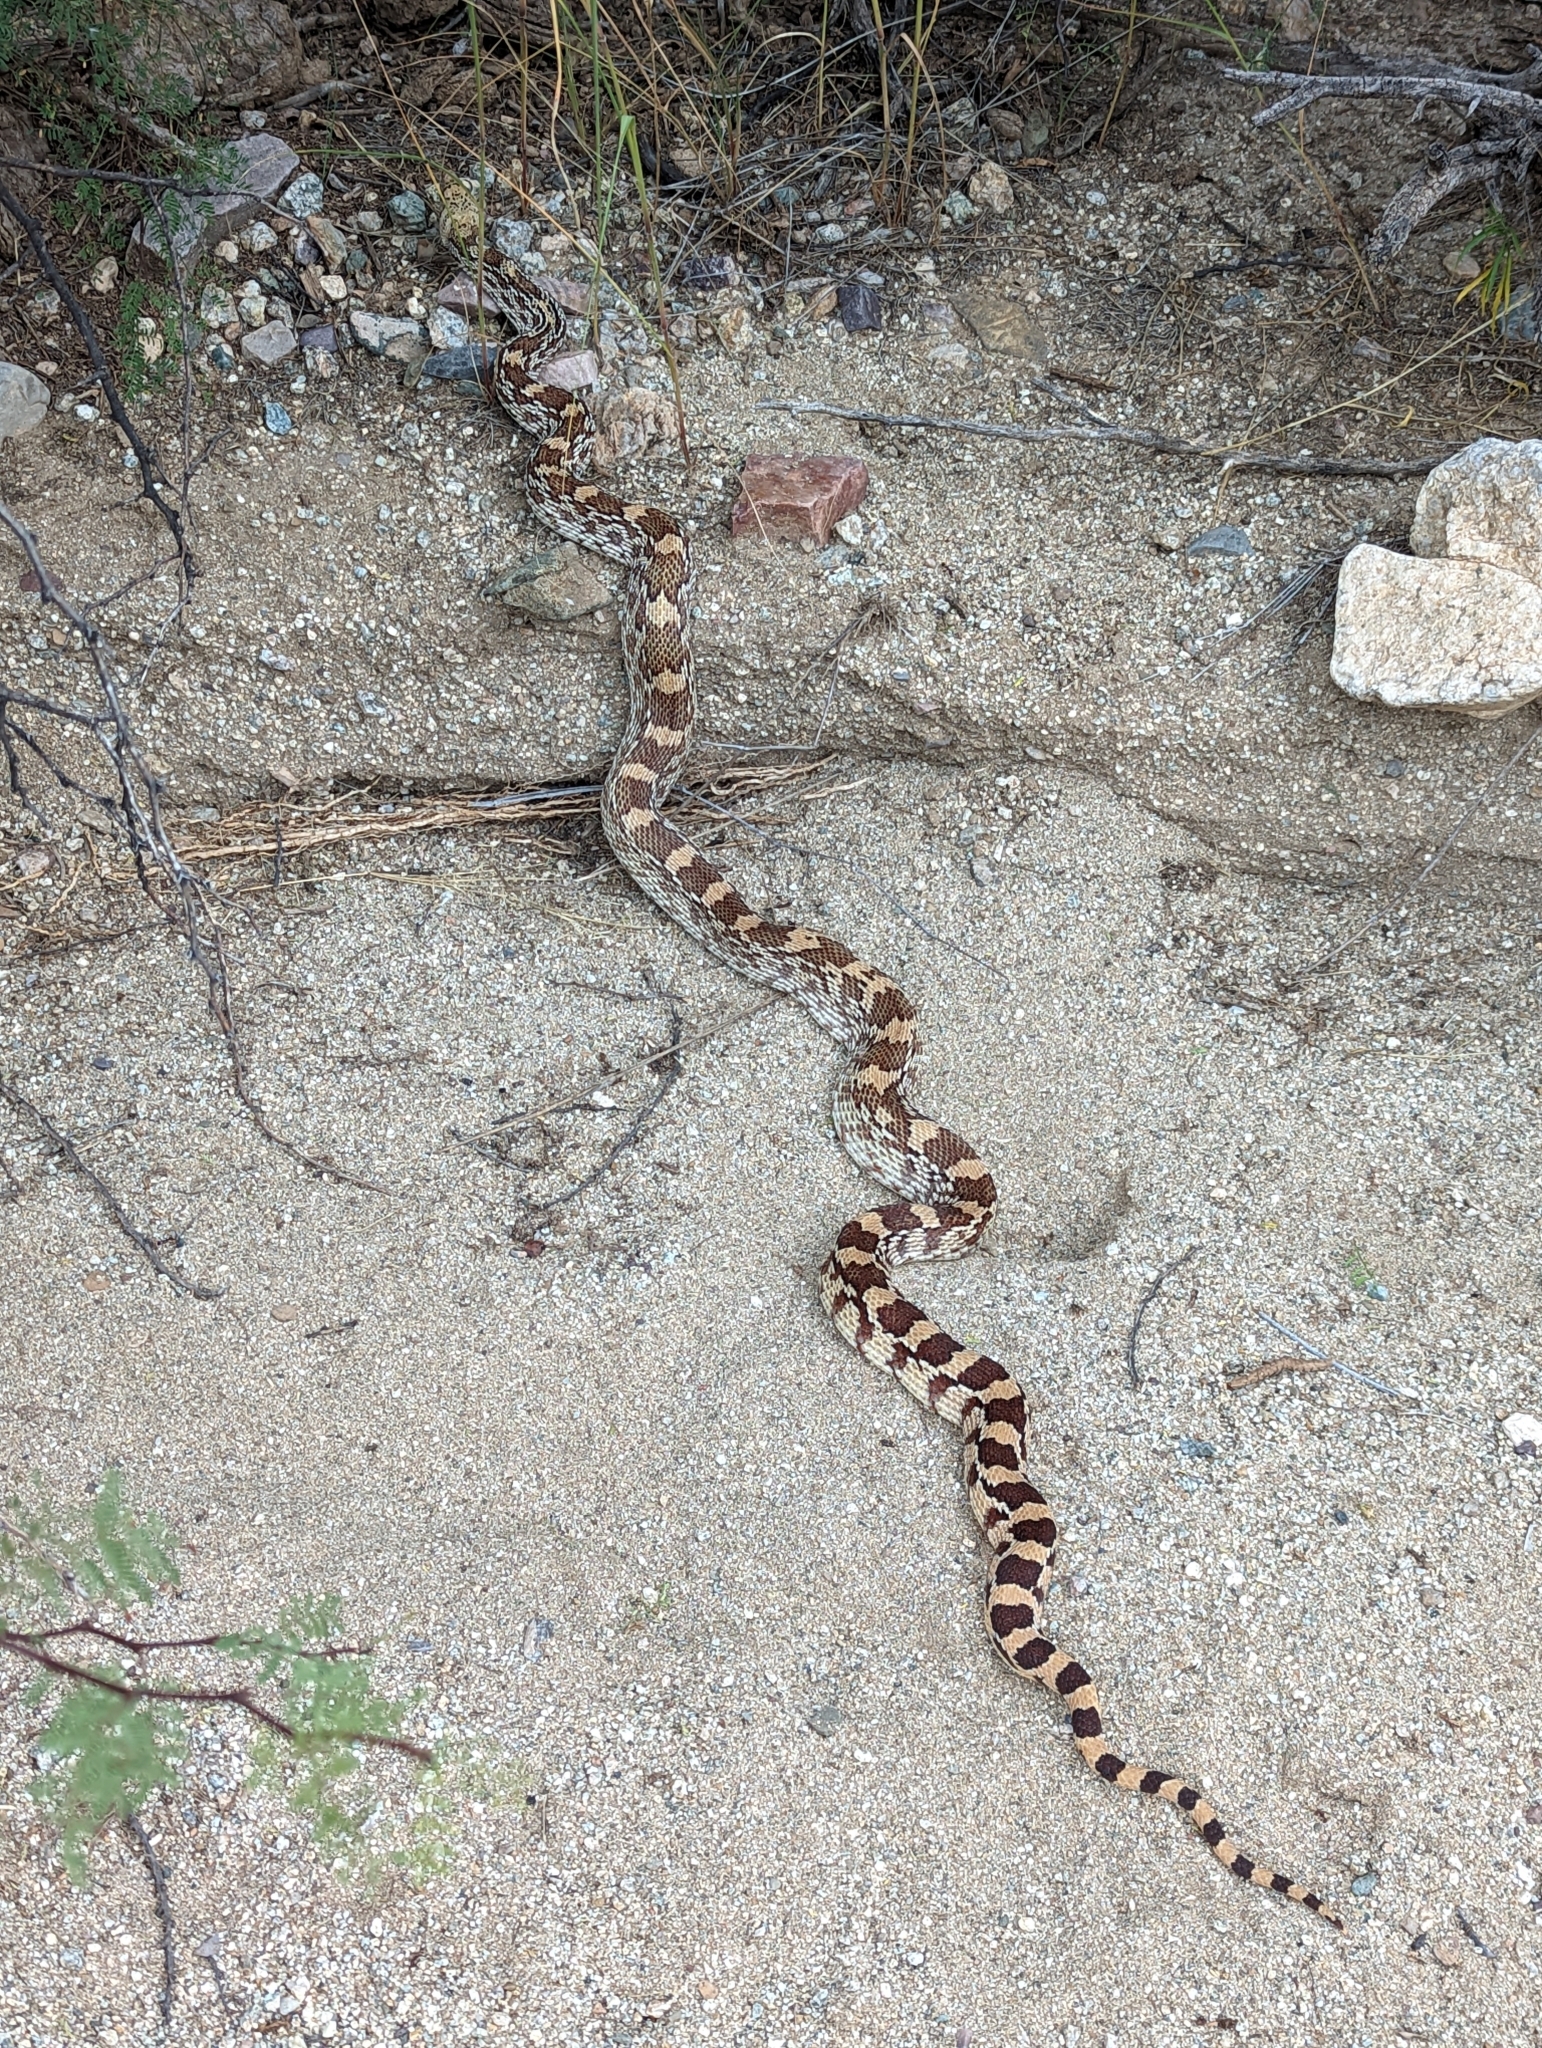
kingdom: Animalia
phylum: Chordata
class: Squamata
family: Colubridae
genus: Pituophis
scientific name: Pituophis catenifer
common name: Gopher snake
